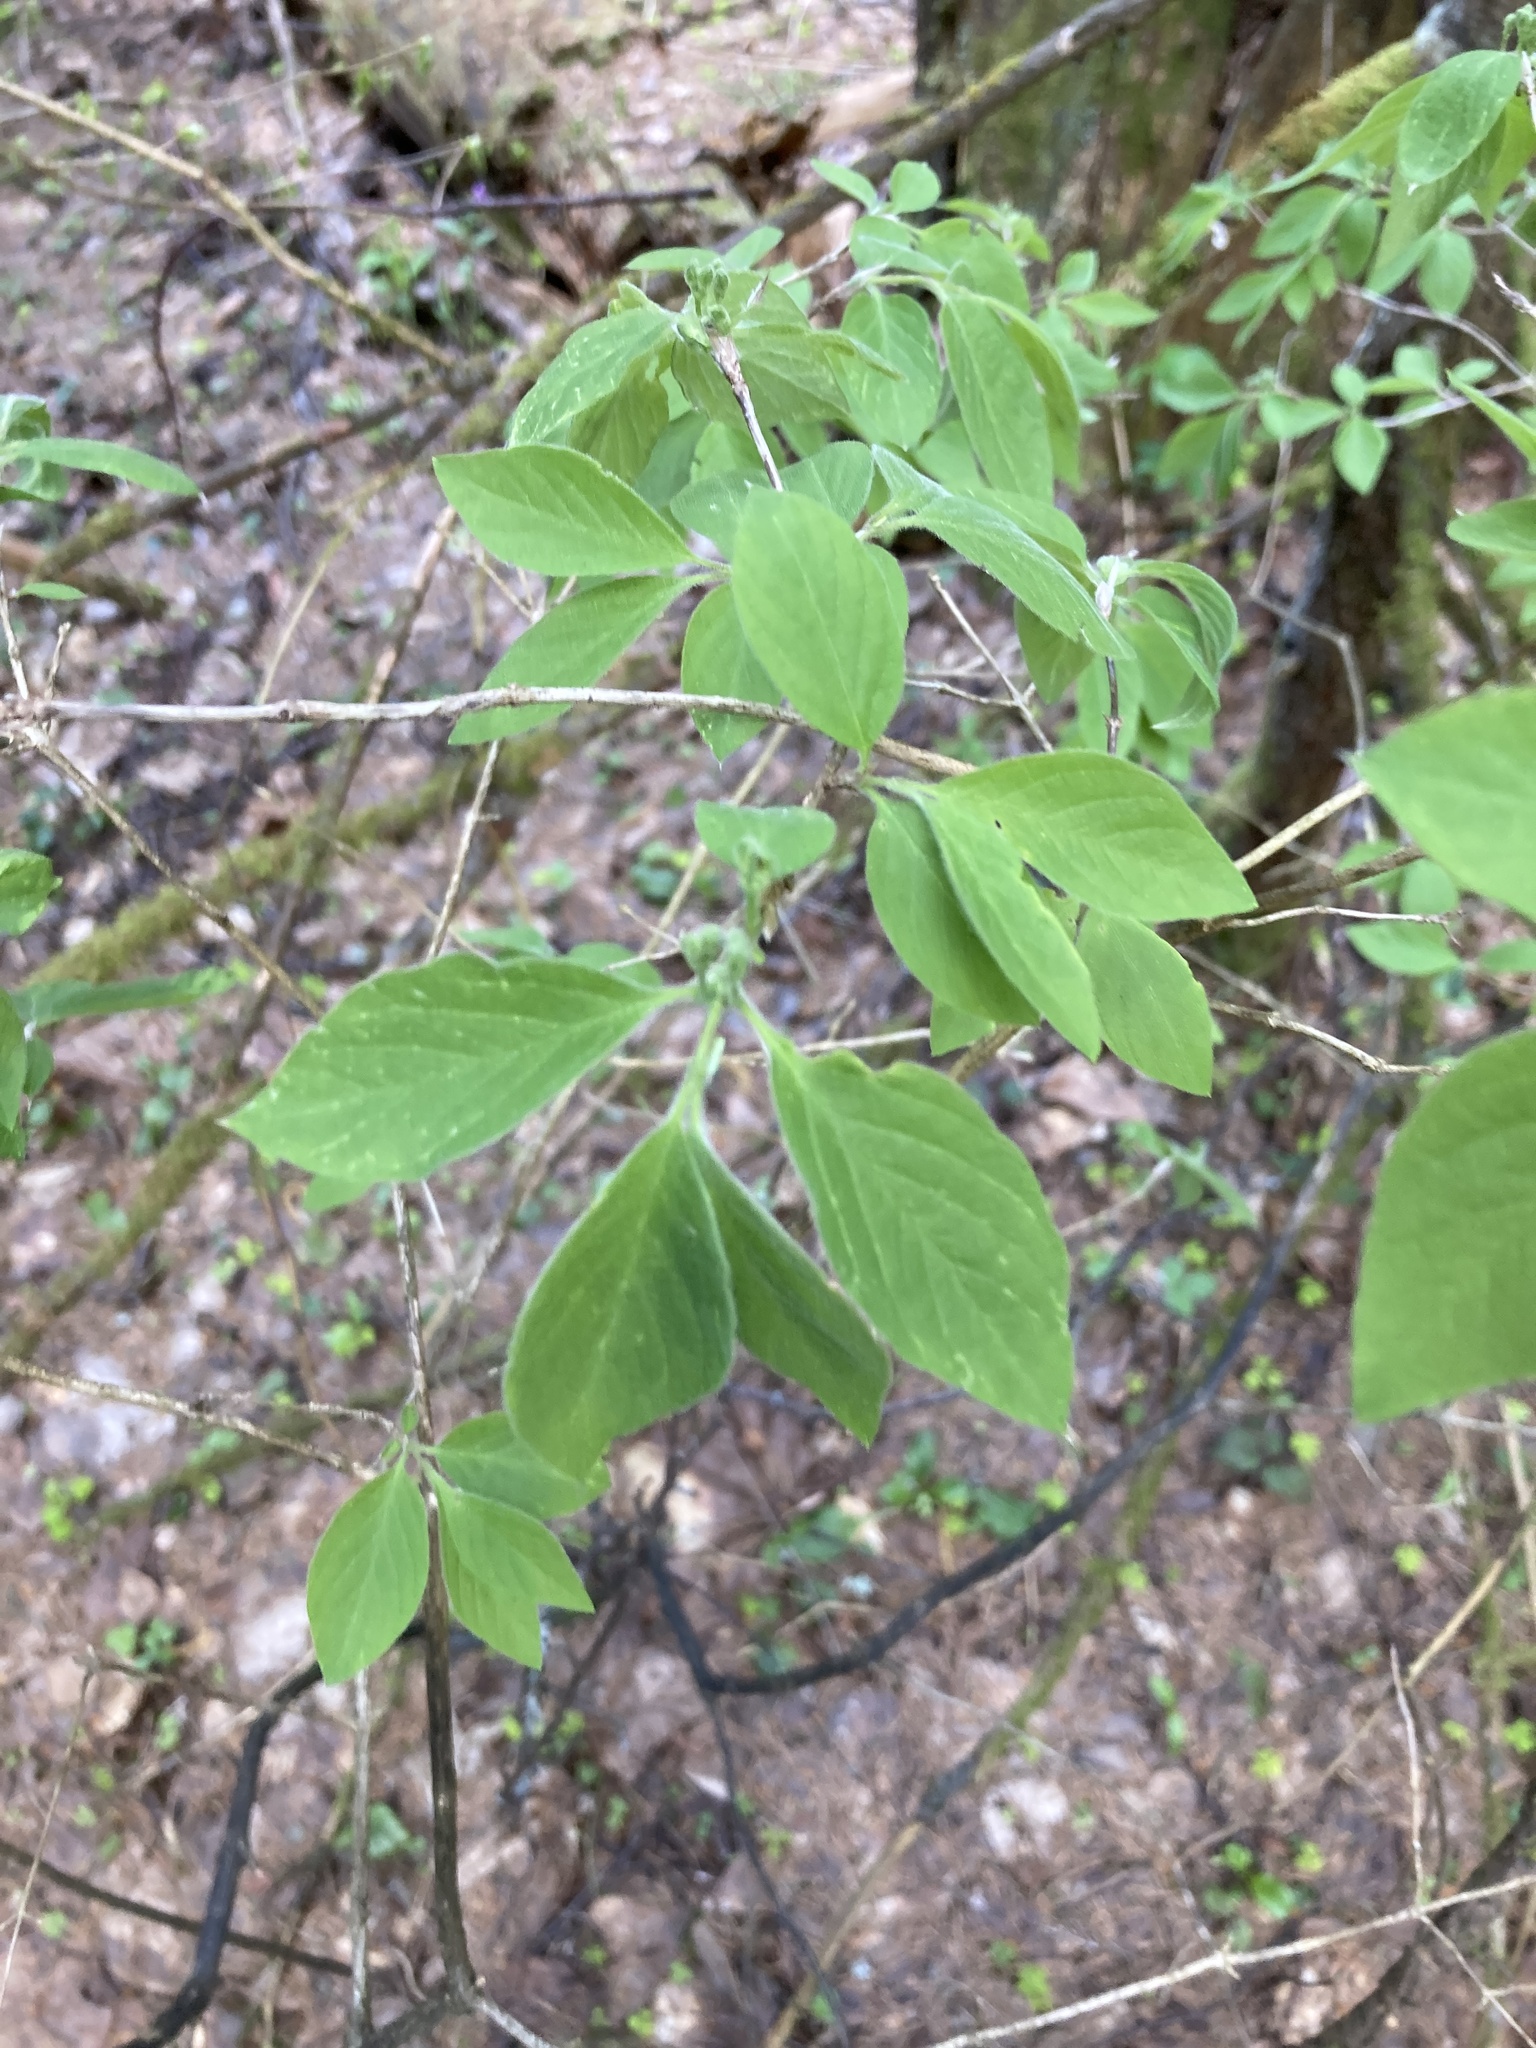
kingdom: Plantae
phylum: Tracheophyta
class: Magnoliopsida
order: Dipsacales
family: Caprifoliaceae
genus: Lonicera
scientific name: Lonicera xylosteum
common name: Fly honeysuckle
